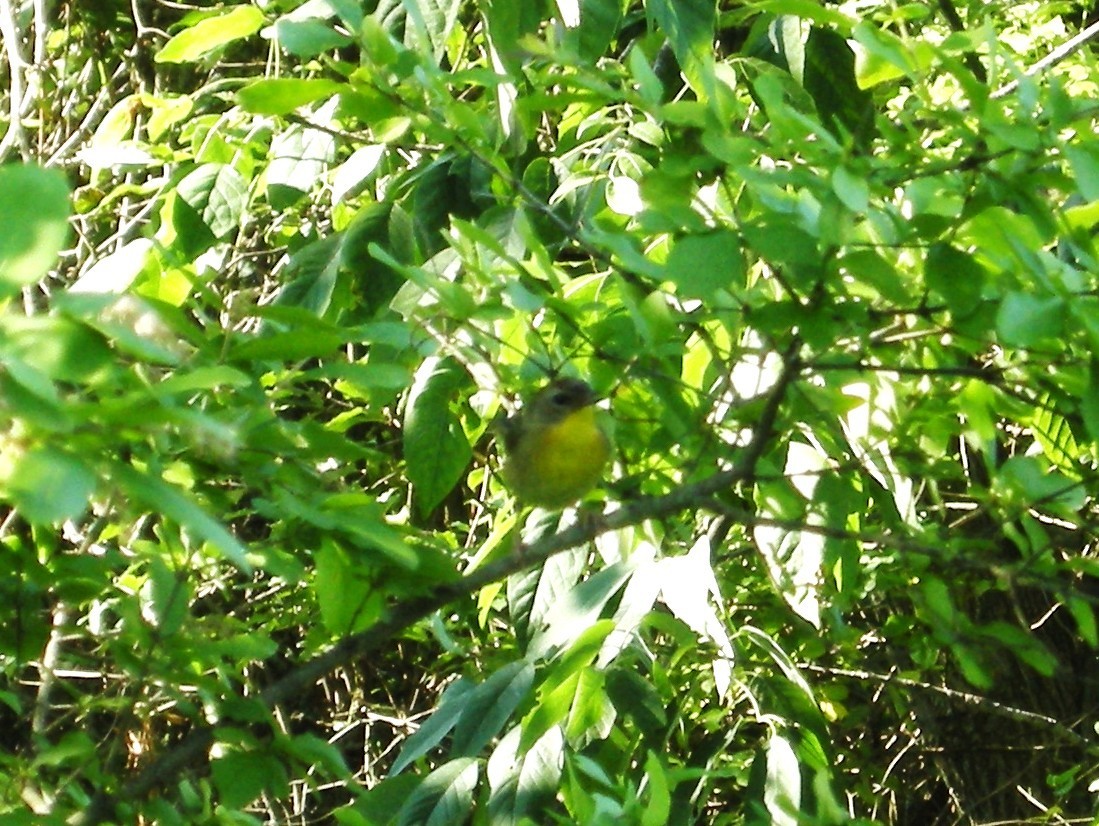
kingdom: Animalia
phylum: Chordata
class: Aves
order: Passeriformes
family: Parulidae
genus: Geothlypis
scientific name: Geothlypis trichas
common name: Common yellowthroat
